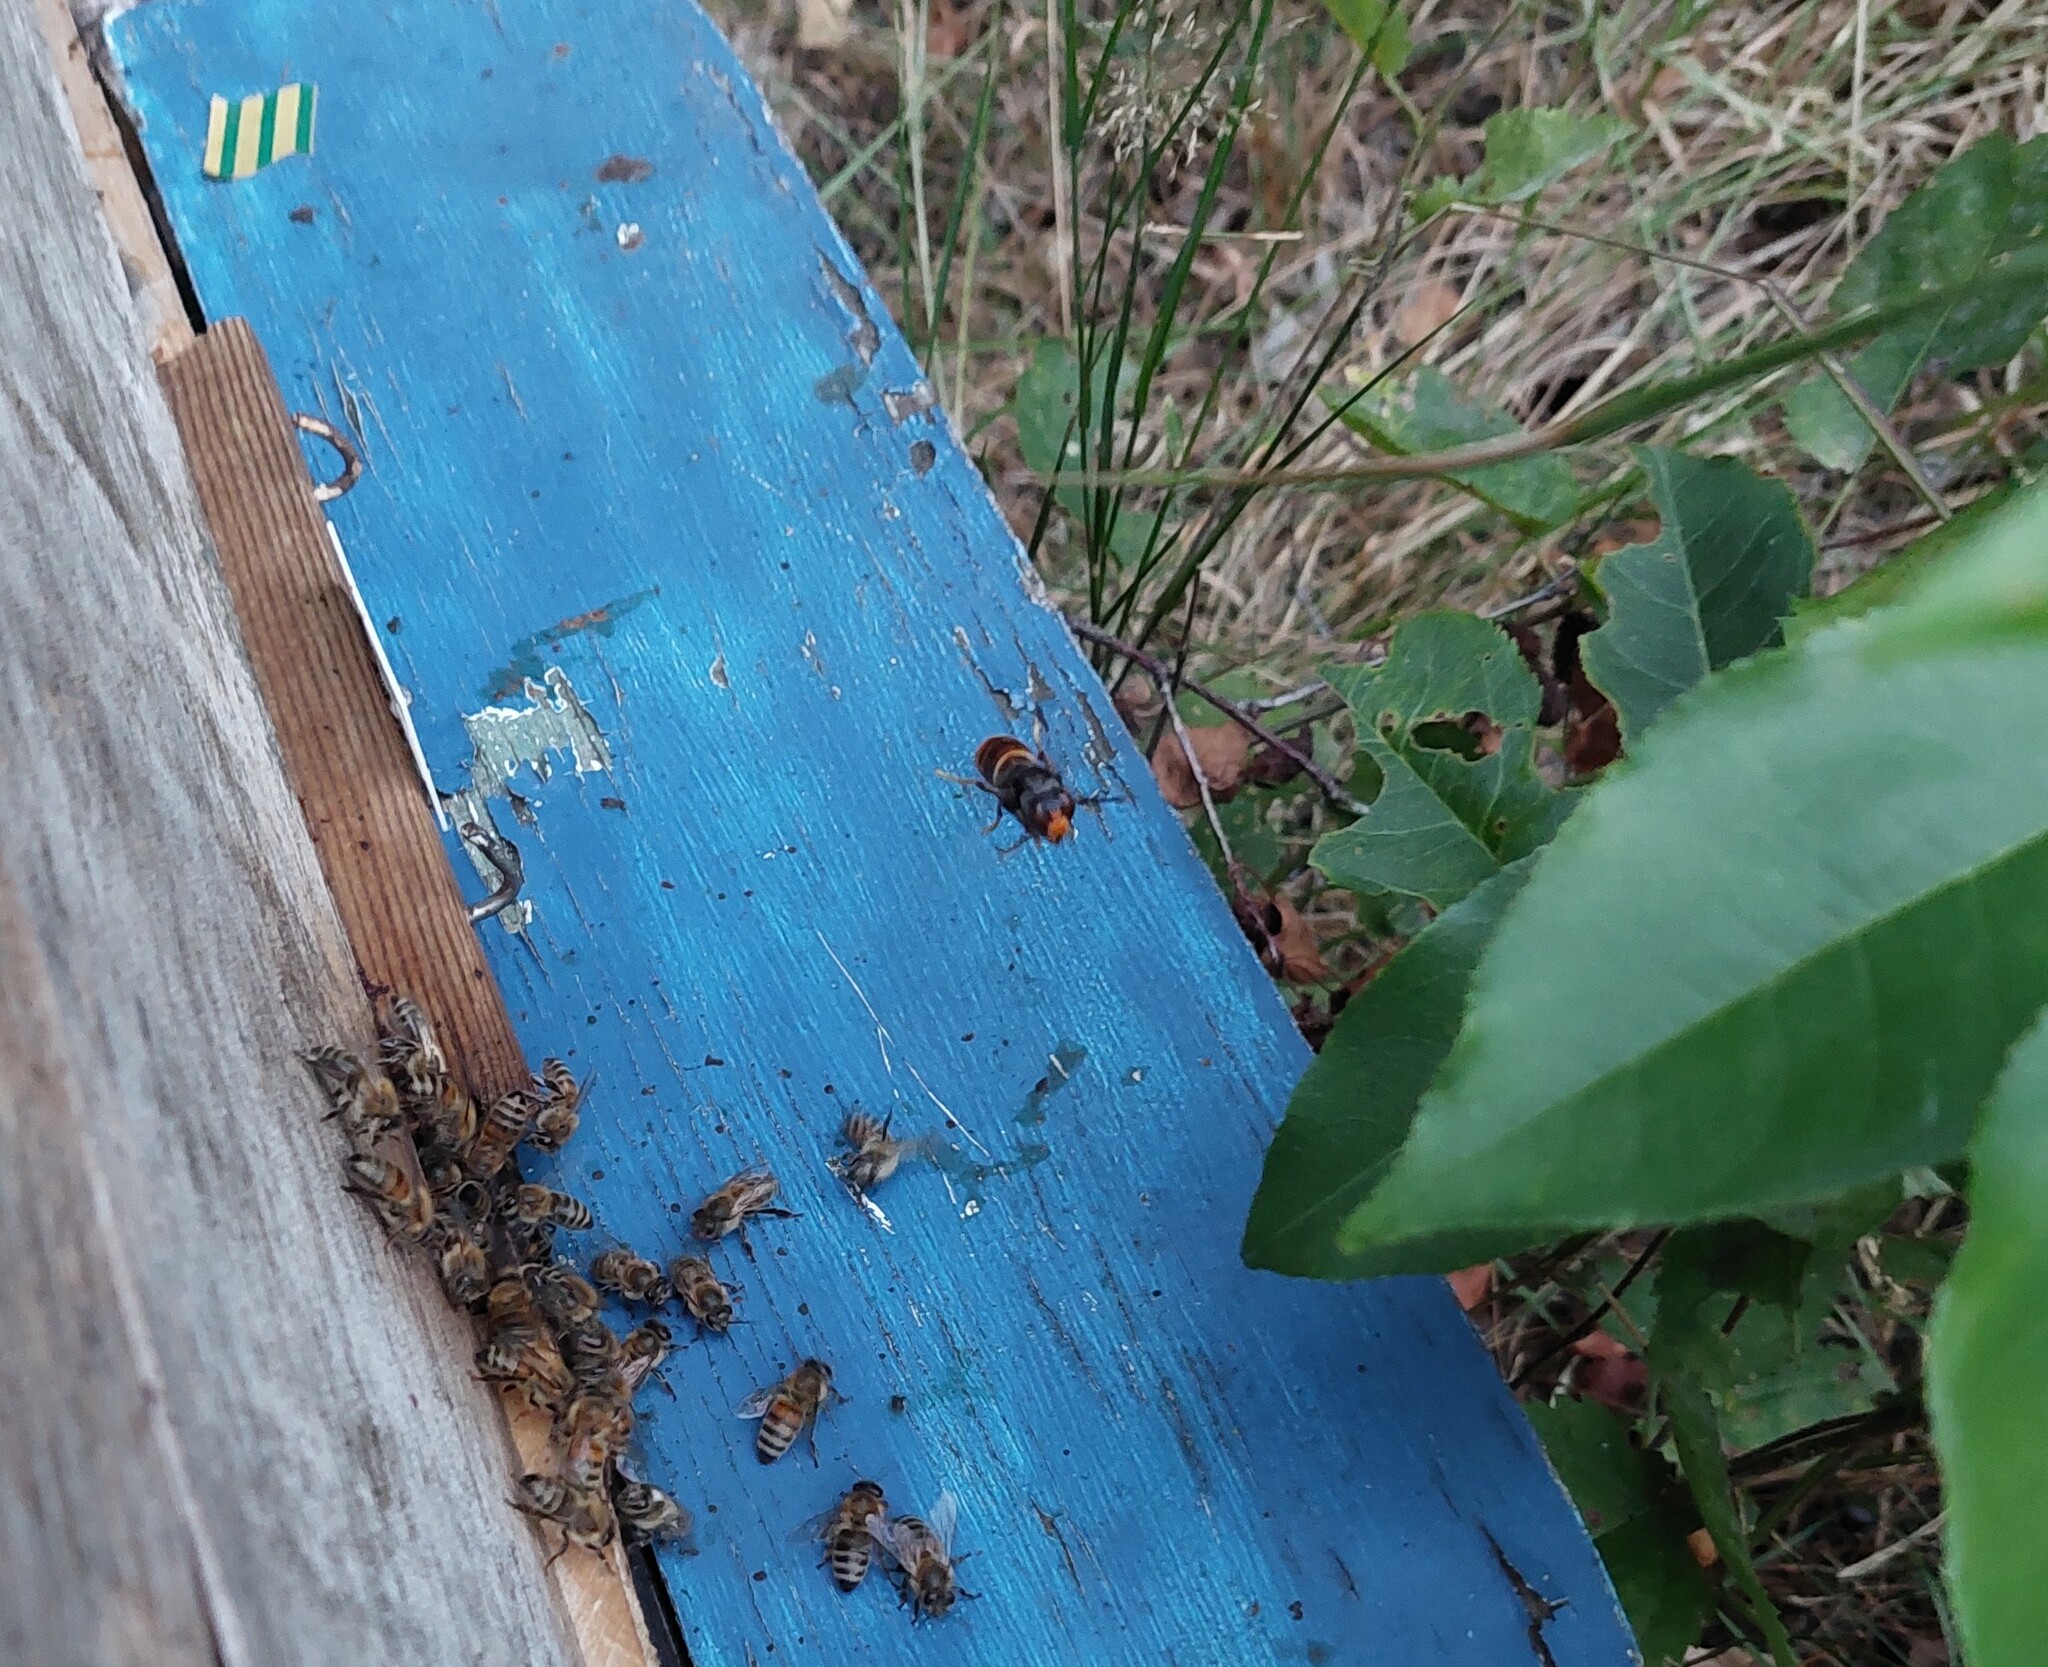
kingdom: Animalia
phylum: Arthropoda
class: Insecta
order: Hymenoptera
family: Vespidae
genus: Vespa
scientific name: Vespa velutina
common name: Asian hornet
